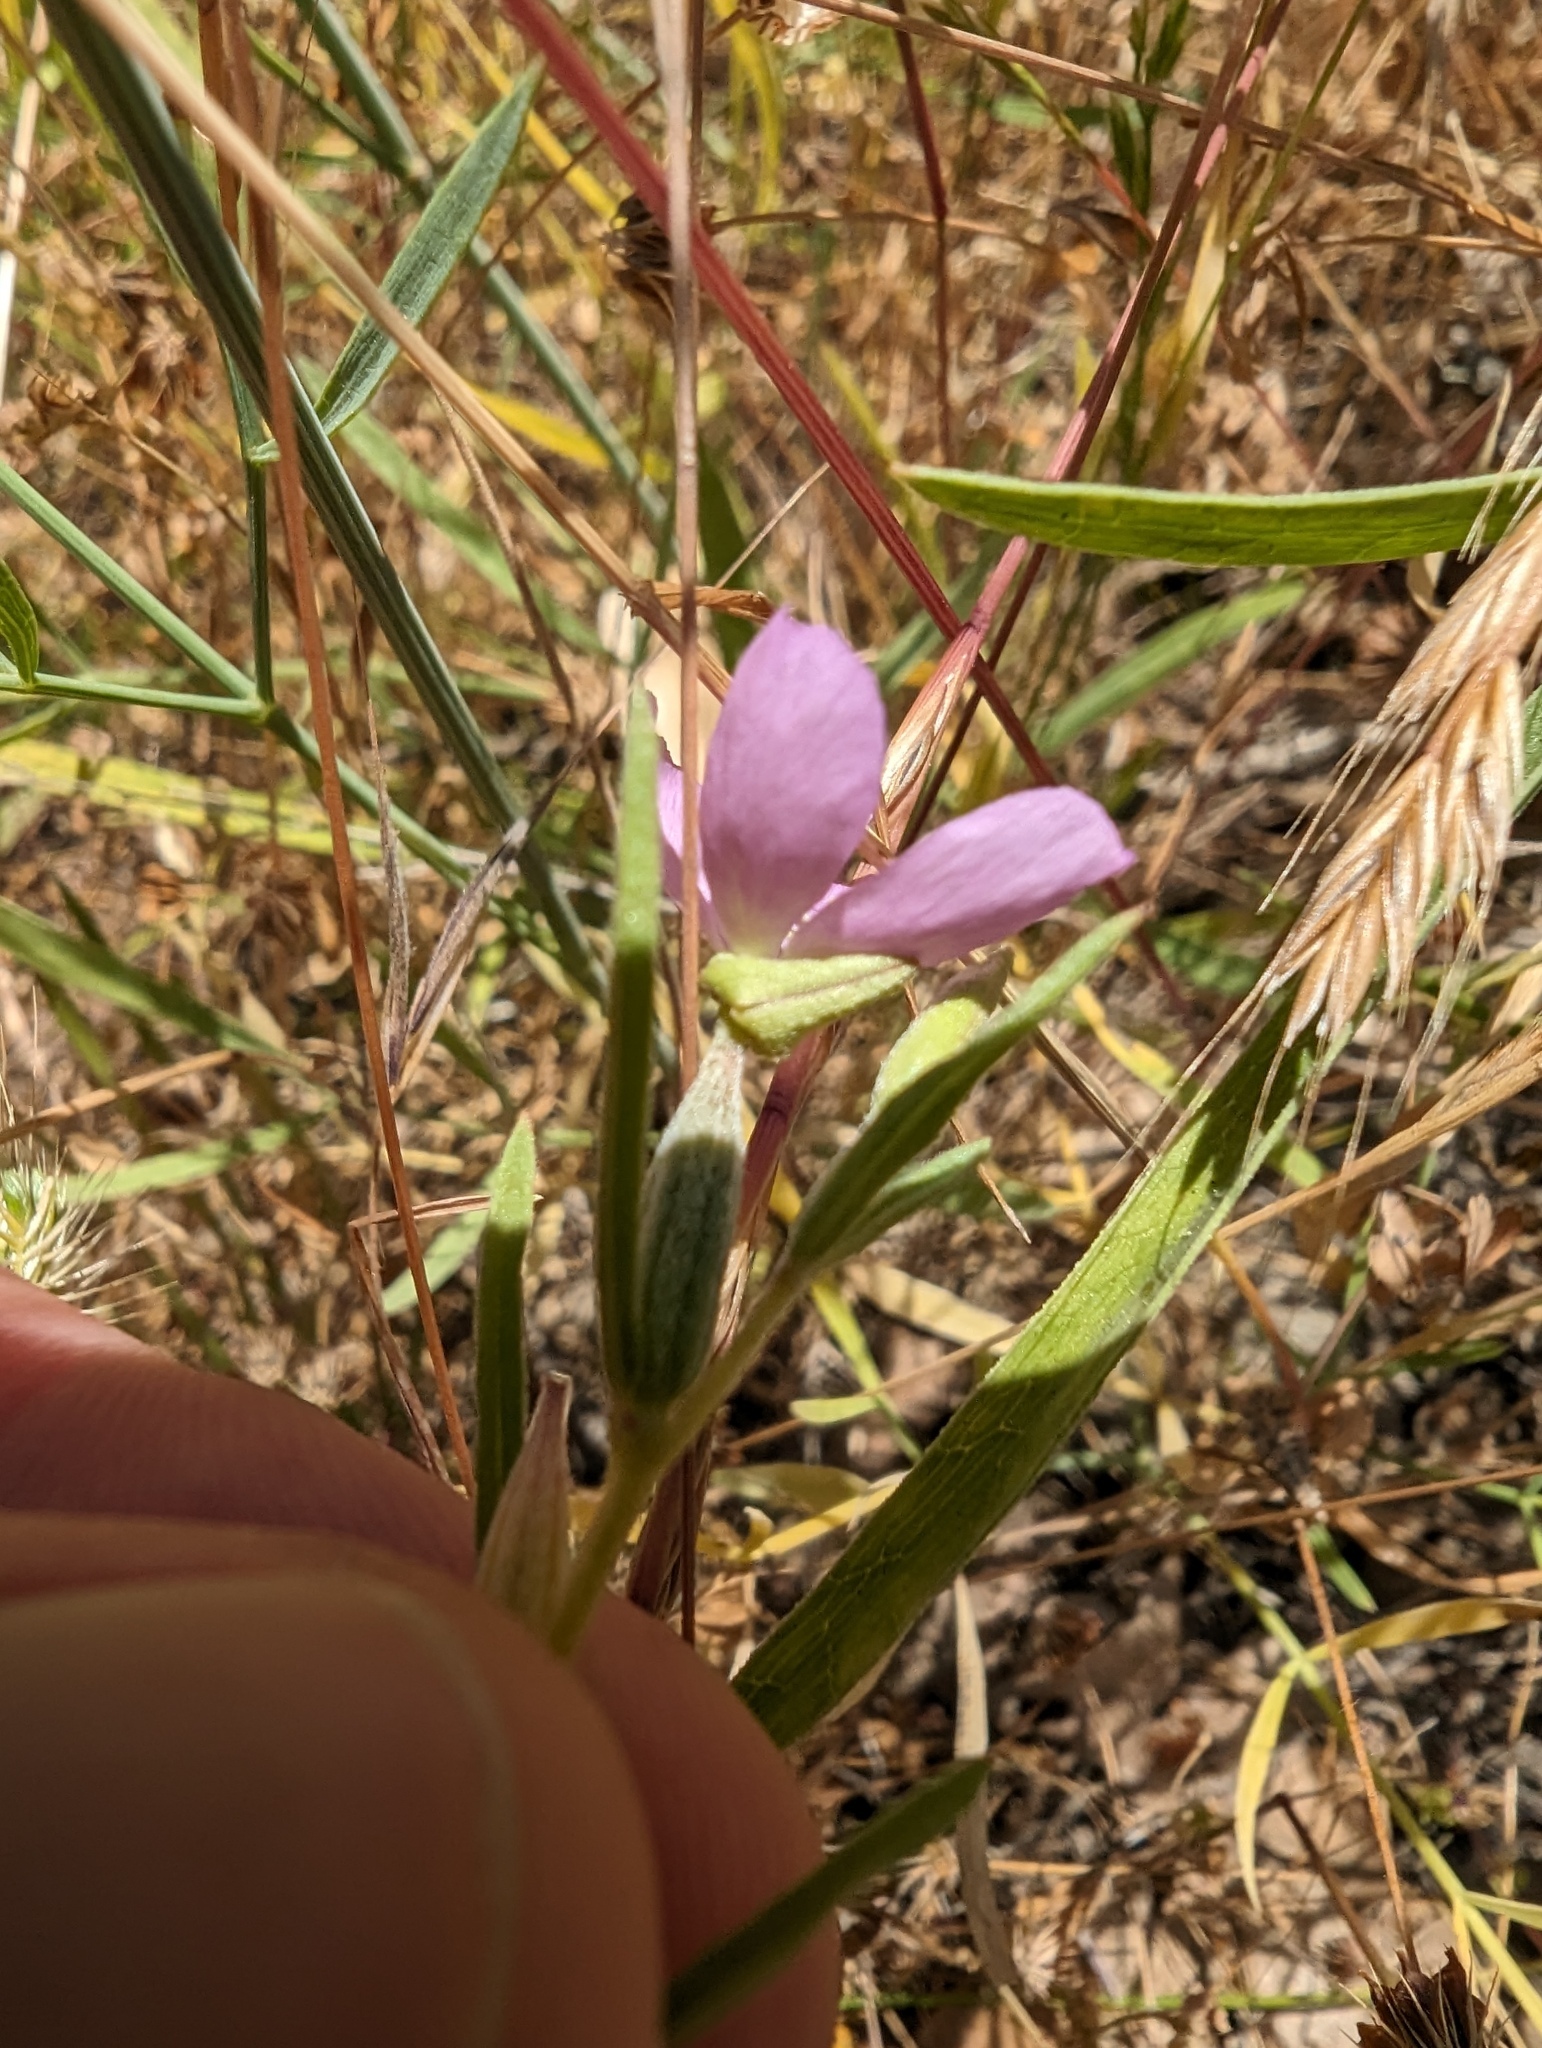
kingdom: Plantae
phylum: Tracheophyta
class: Magnoliopsida
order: Myrtales
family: Onagraceae
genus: Clarkia
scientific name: Clarkia affinis
